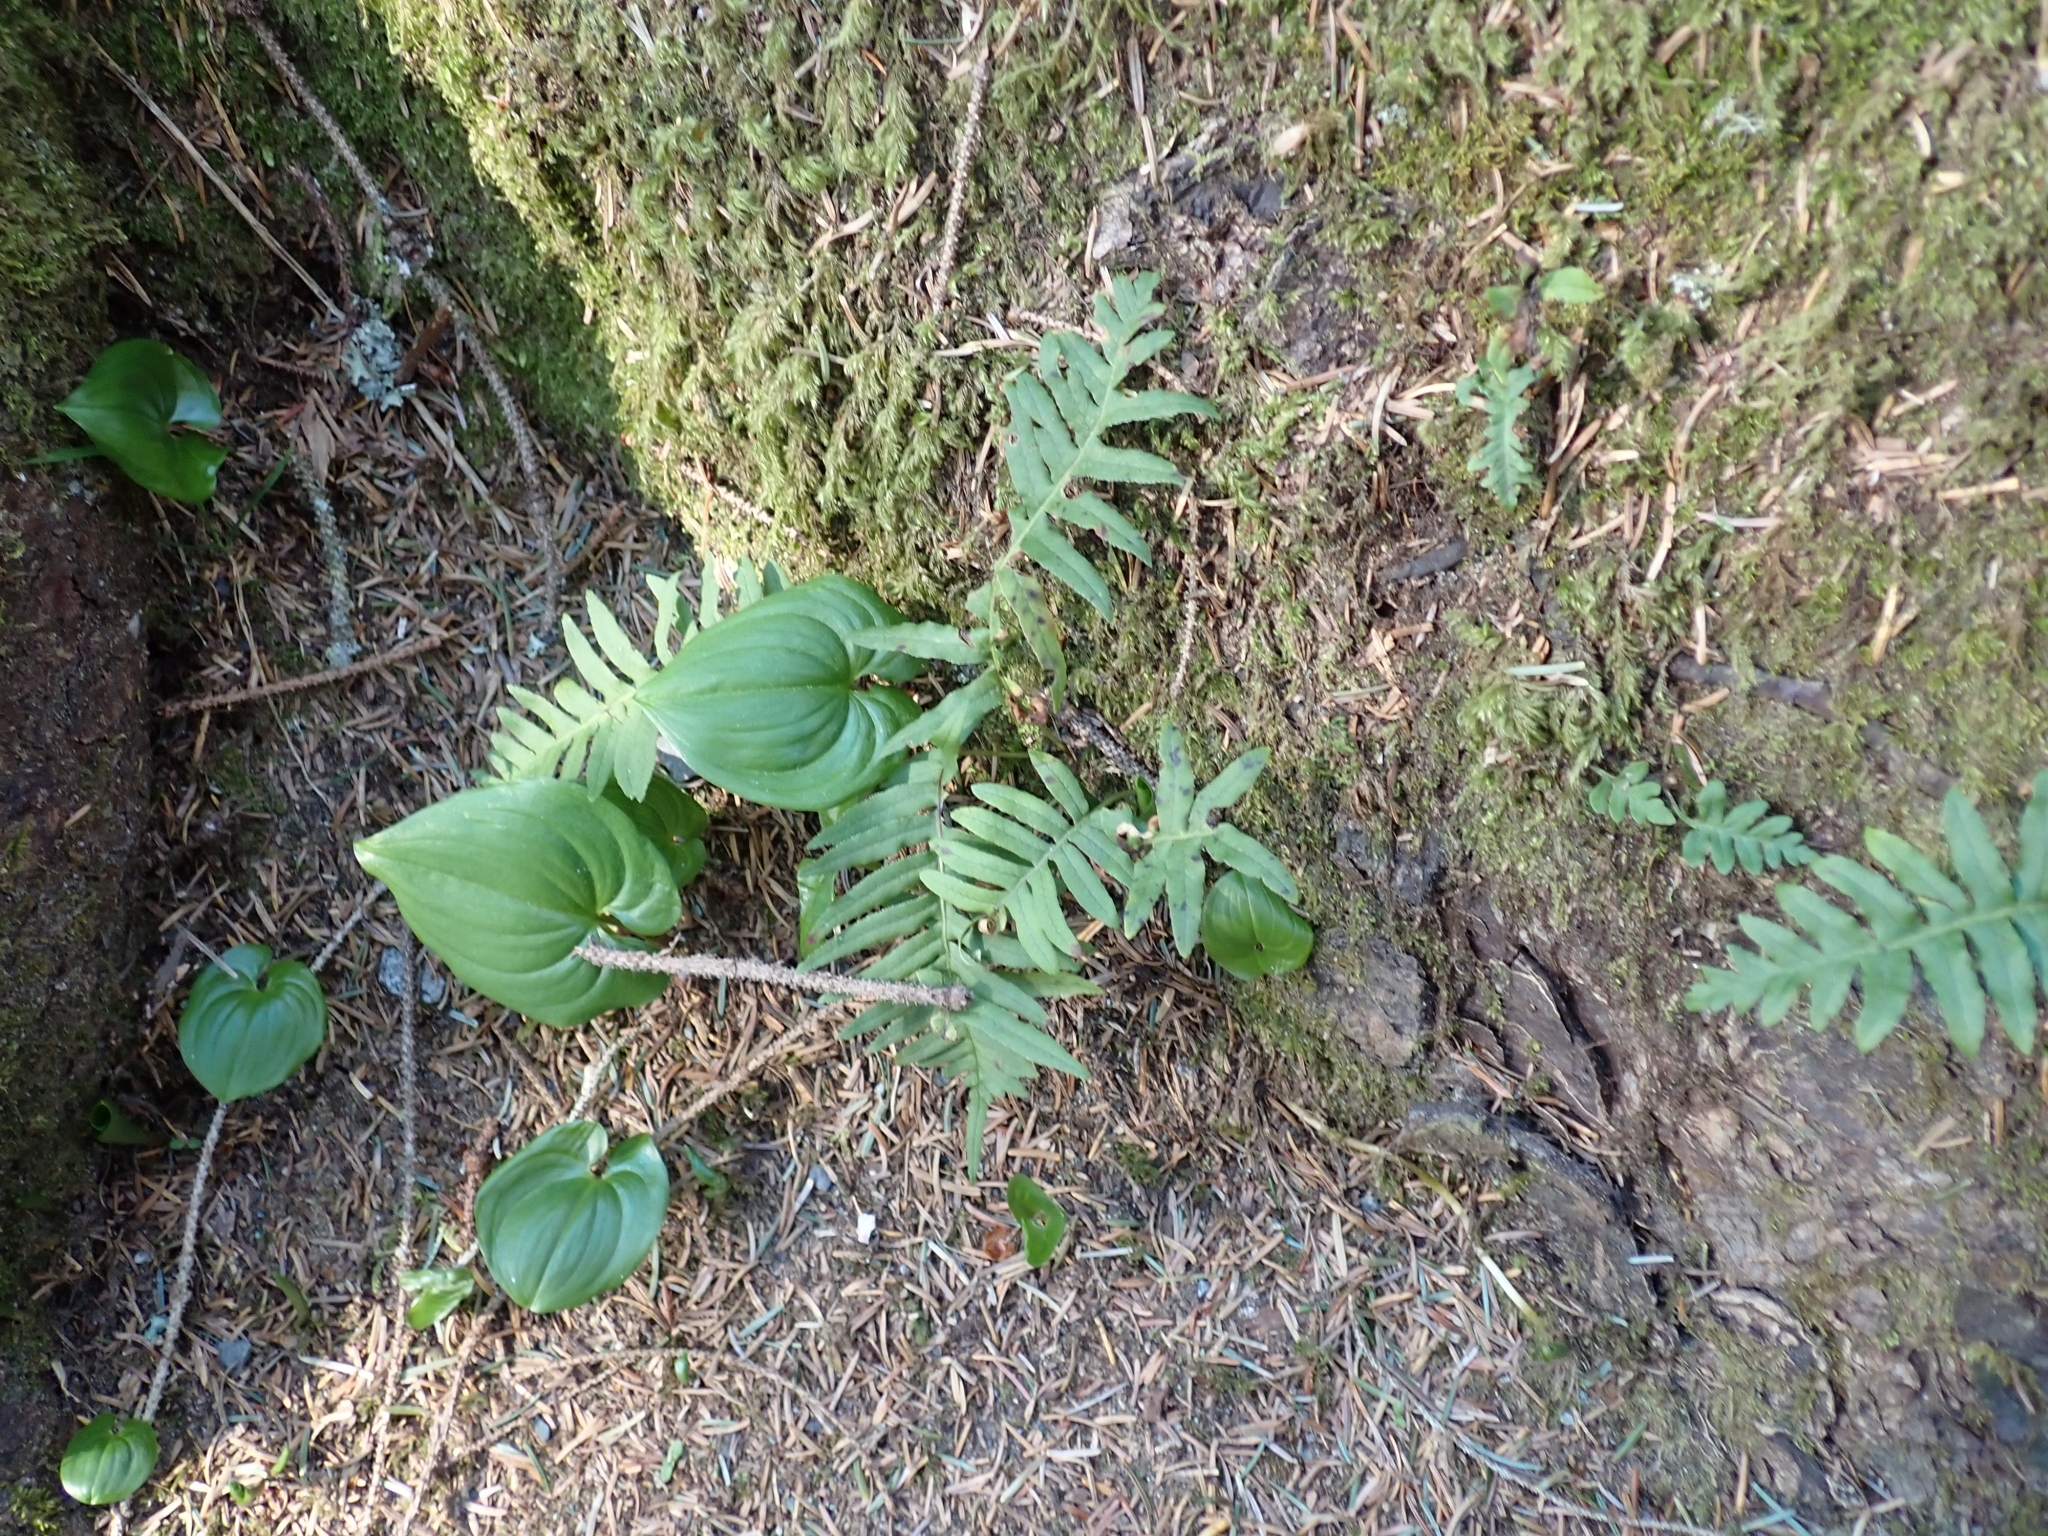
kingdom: Plantae
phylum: Tracheophyta
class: Polypodiopsida
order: Polypodiales
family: Polypodiaceae
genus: Polypodium
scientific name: Polypodium glycyrrhiza
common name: Licorice fern
